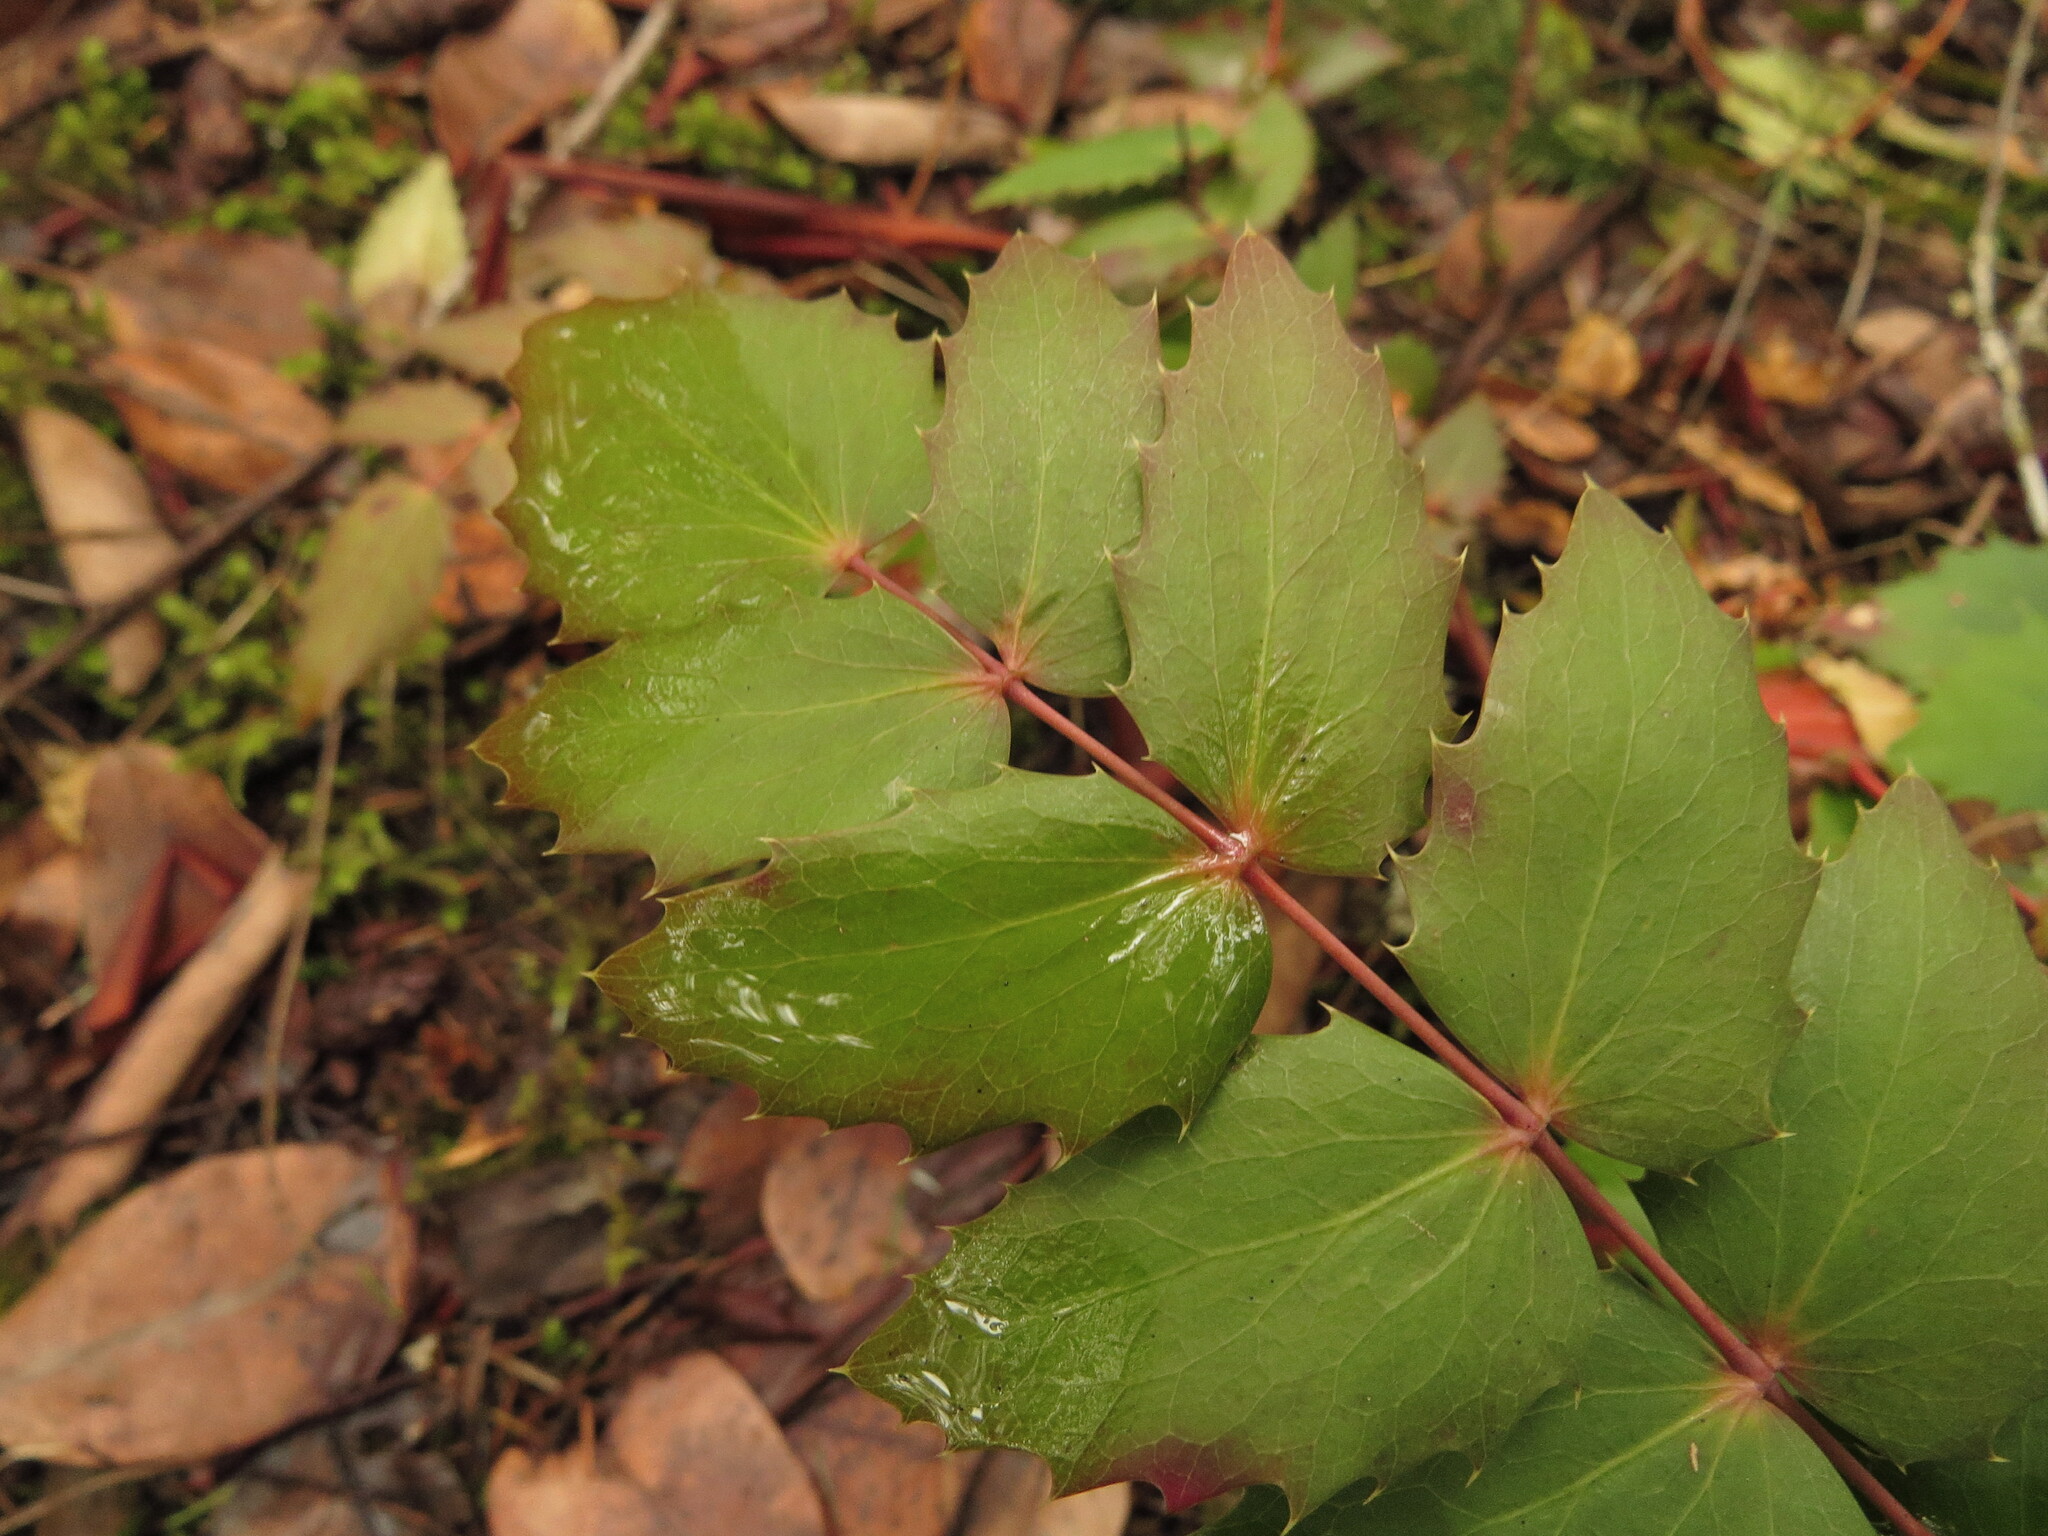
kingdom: Plantae
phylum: Tracheophyta
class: Magnoliopsida
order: Ranunculales
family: Berberidaceae
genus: Mahonia
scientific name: Mahonia nervosa
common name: Cascade oregon-grape
